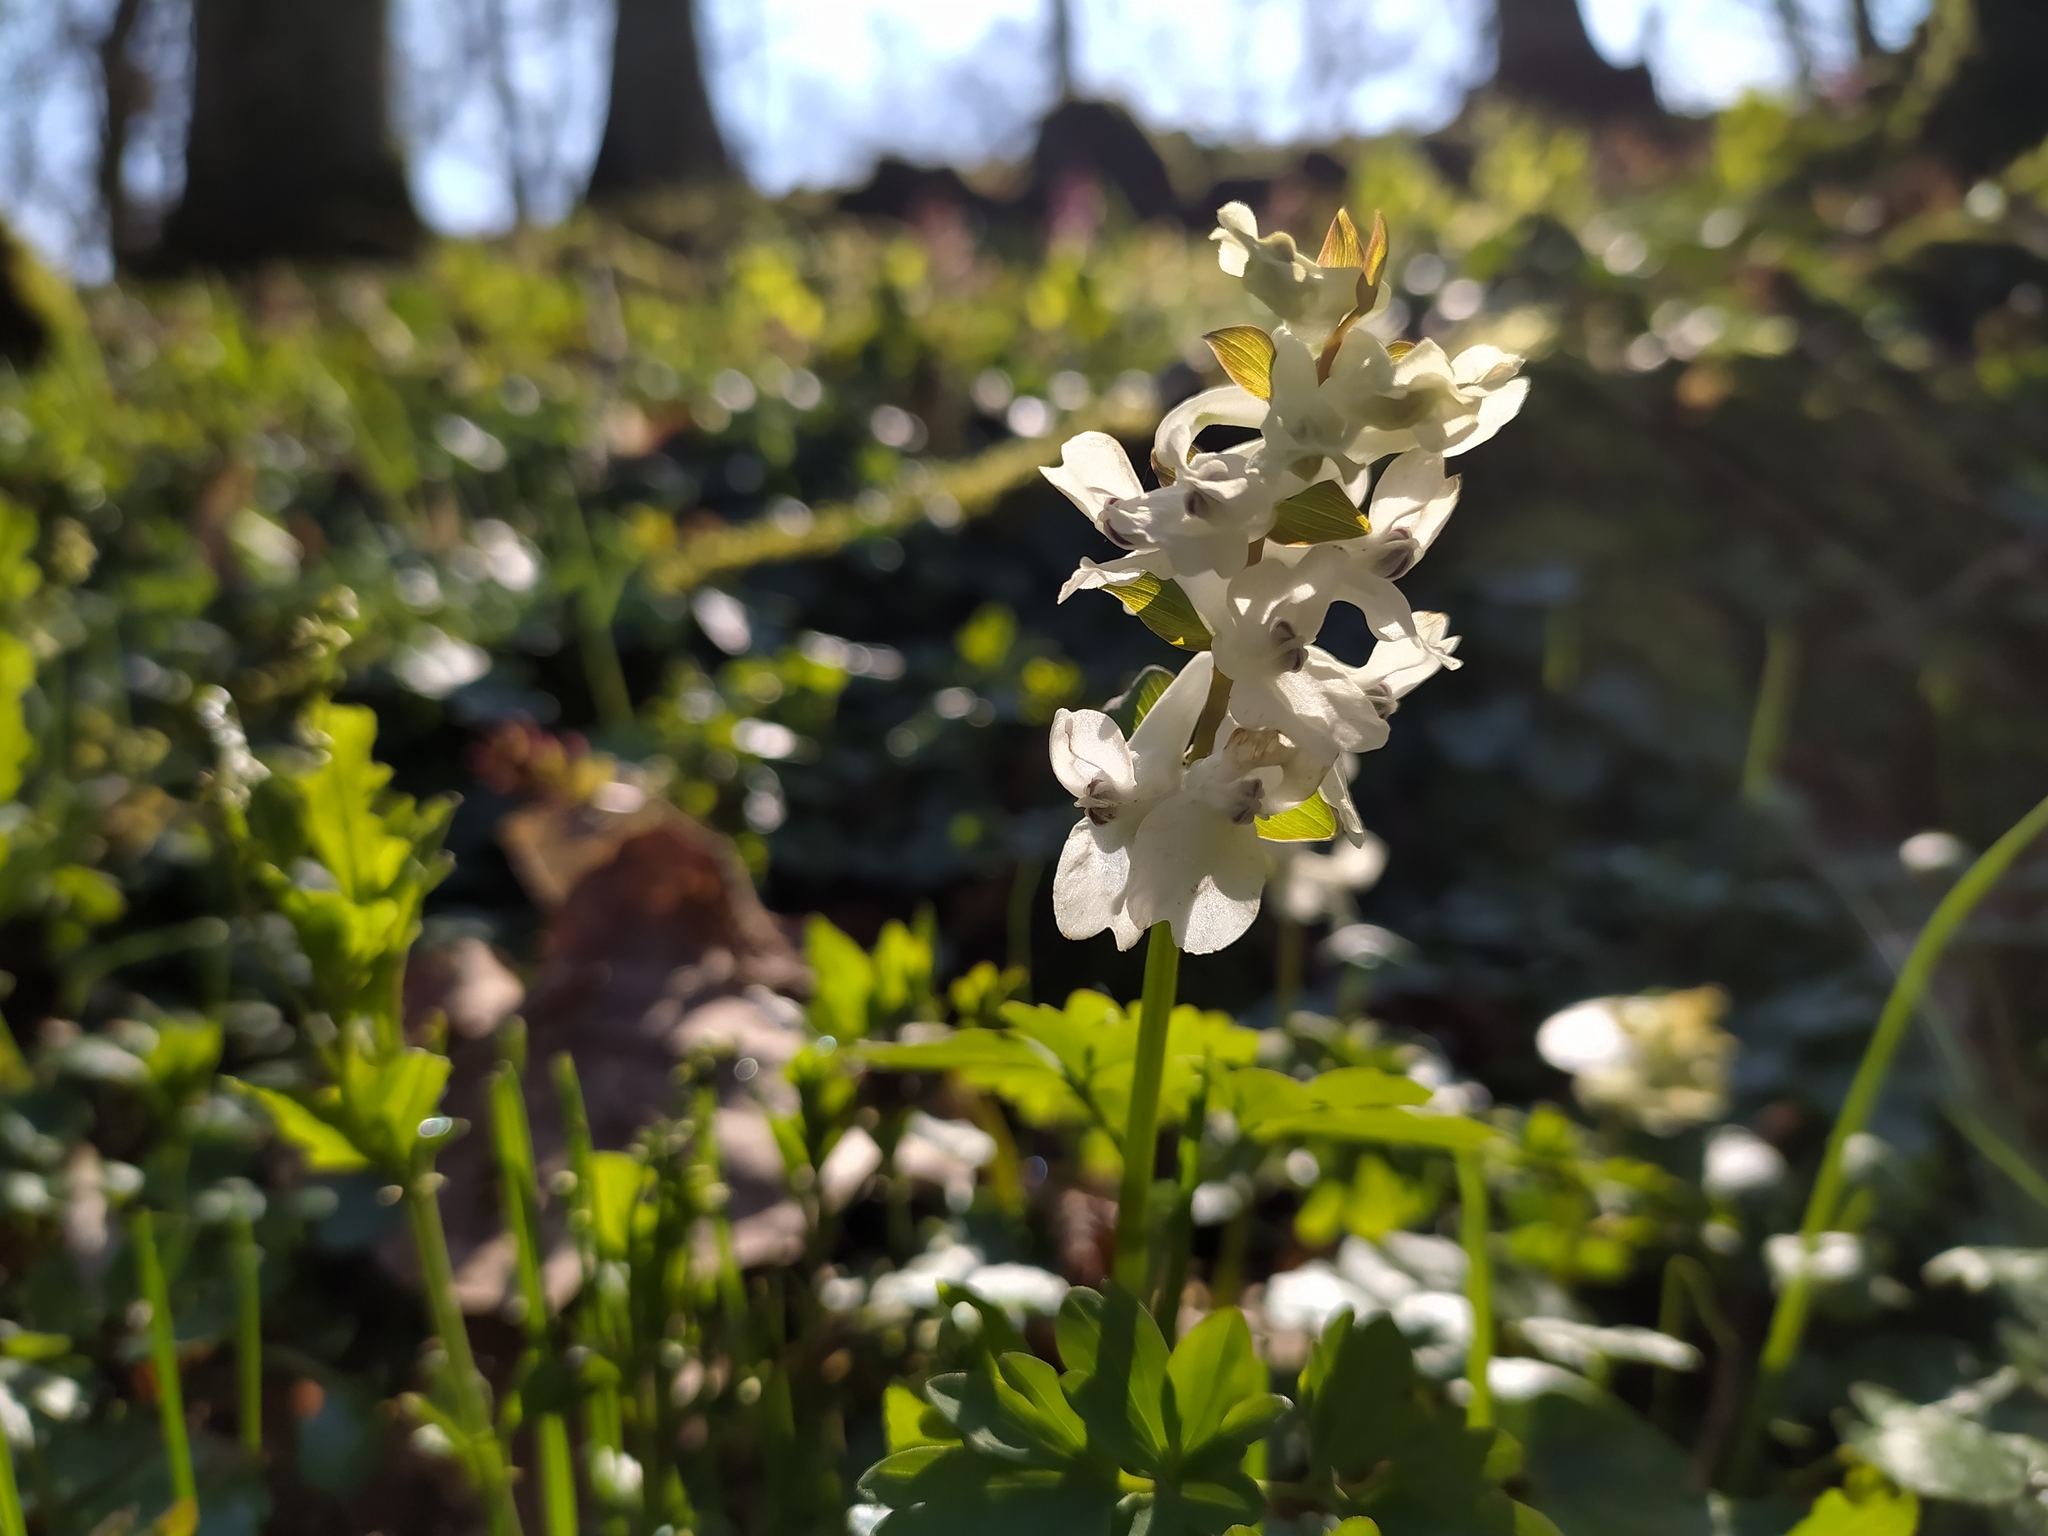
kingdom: Plantae
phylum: Tracheophyta
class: Magnoliopsida
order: Ranunculales
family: Papaveraceae
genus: Corydalis
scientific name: Corydalis cava
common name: Hollowroot
